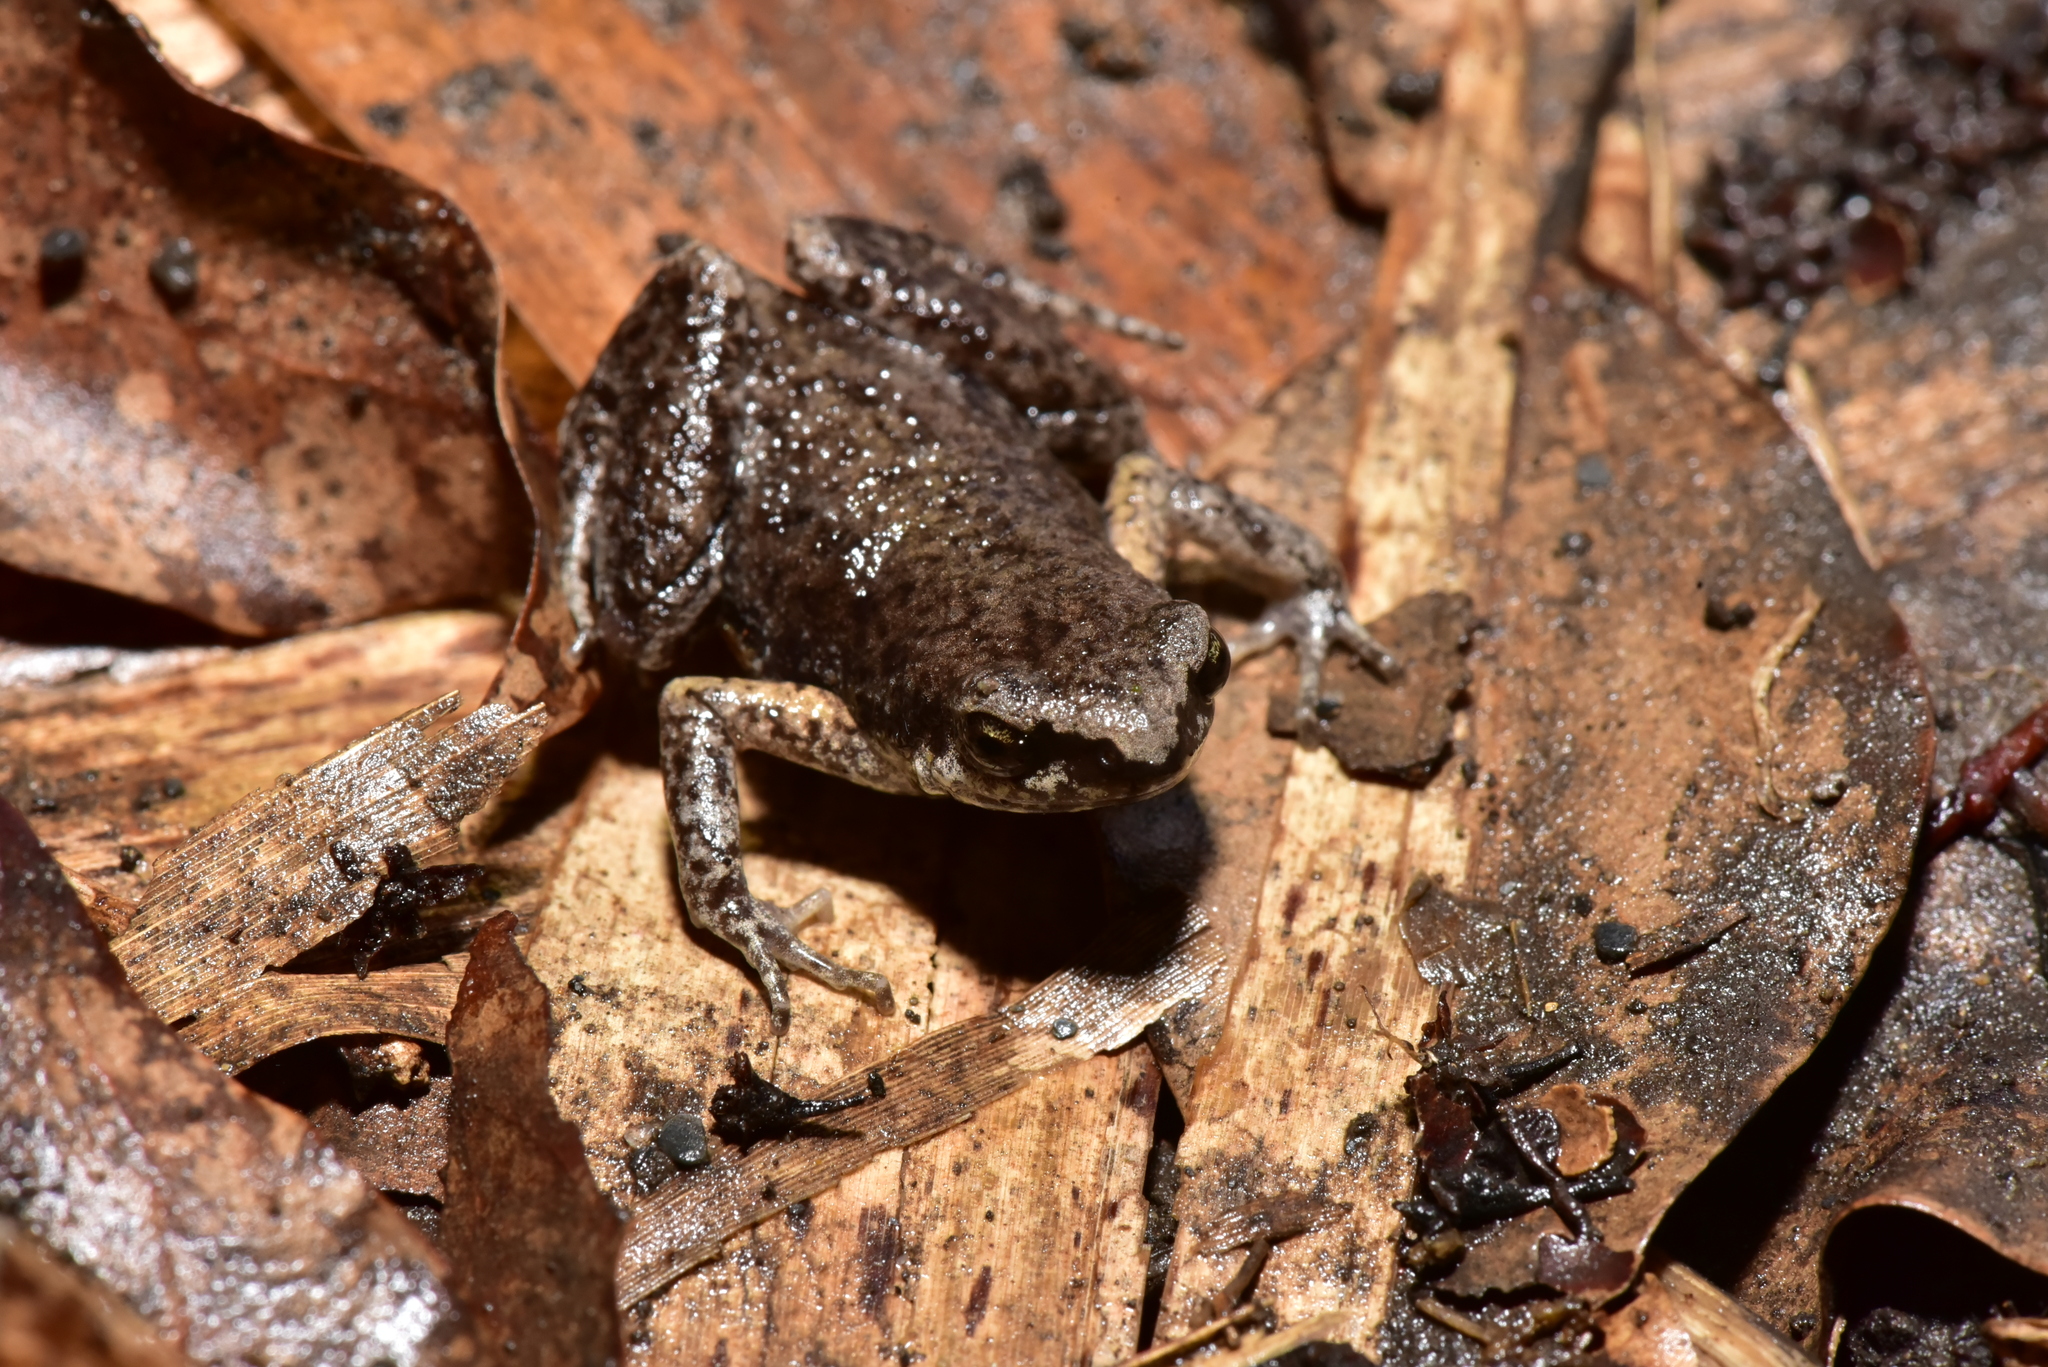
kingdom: Animalia
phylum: Chordata
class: Amphibia
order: Anura
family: Microhylidae
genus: Micryletta
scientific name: Micryletta steinegeri
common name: Stejneger's paddy frog
